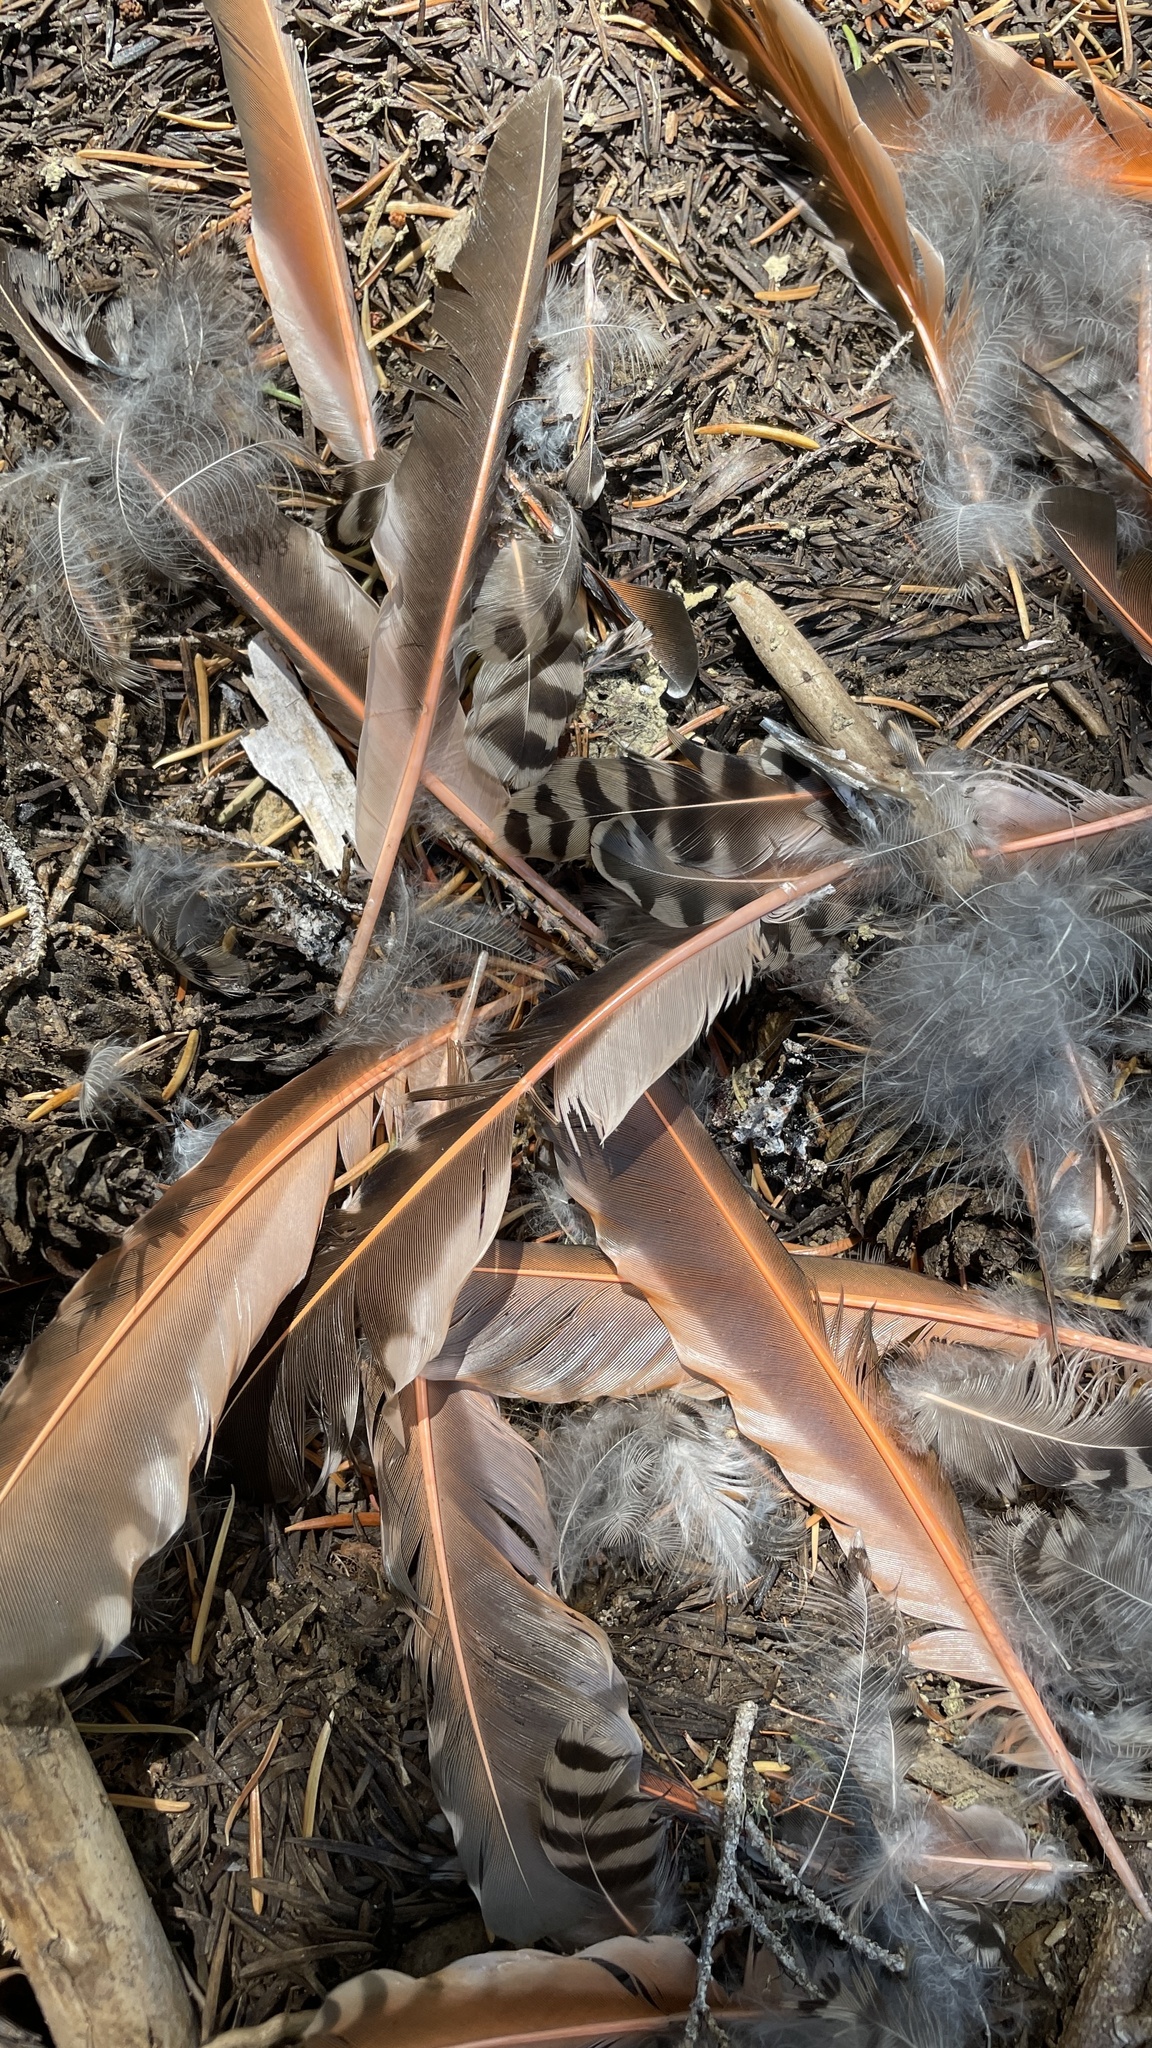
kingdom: Animalia
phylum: Chordata
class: Aves
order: Piciformes
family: Picidae
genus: Colaptes
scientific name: Colaptes auratus
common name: Northern flicker
